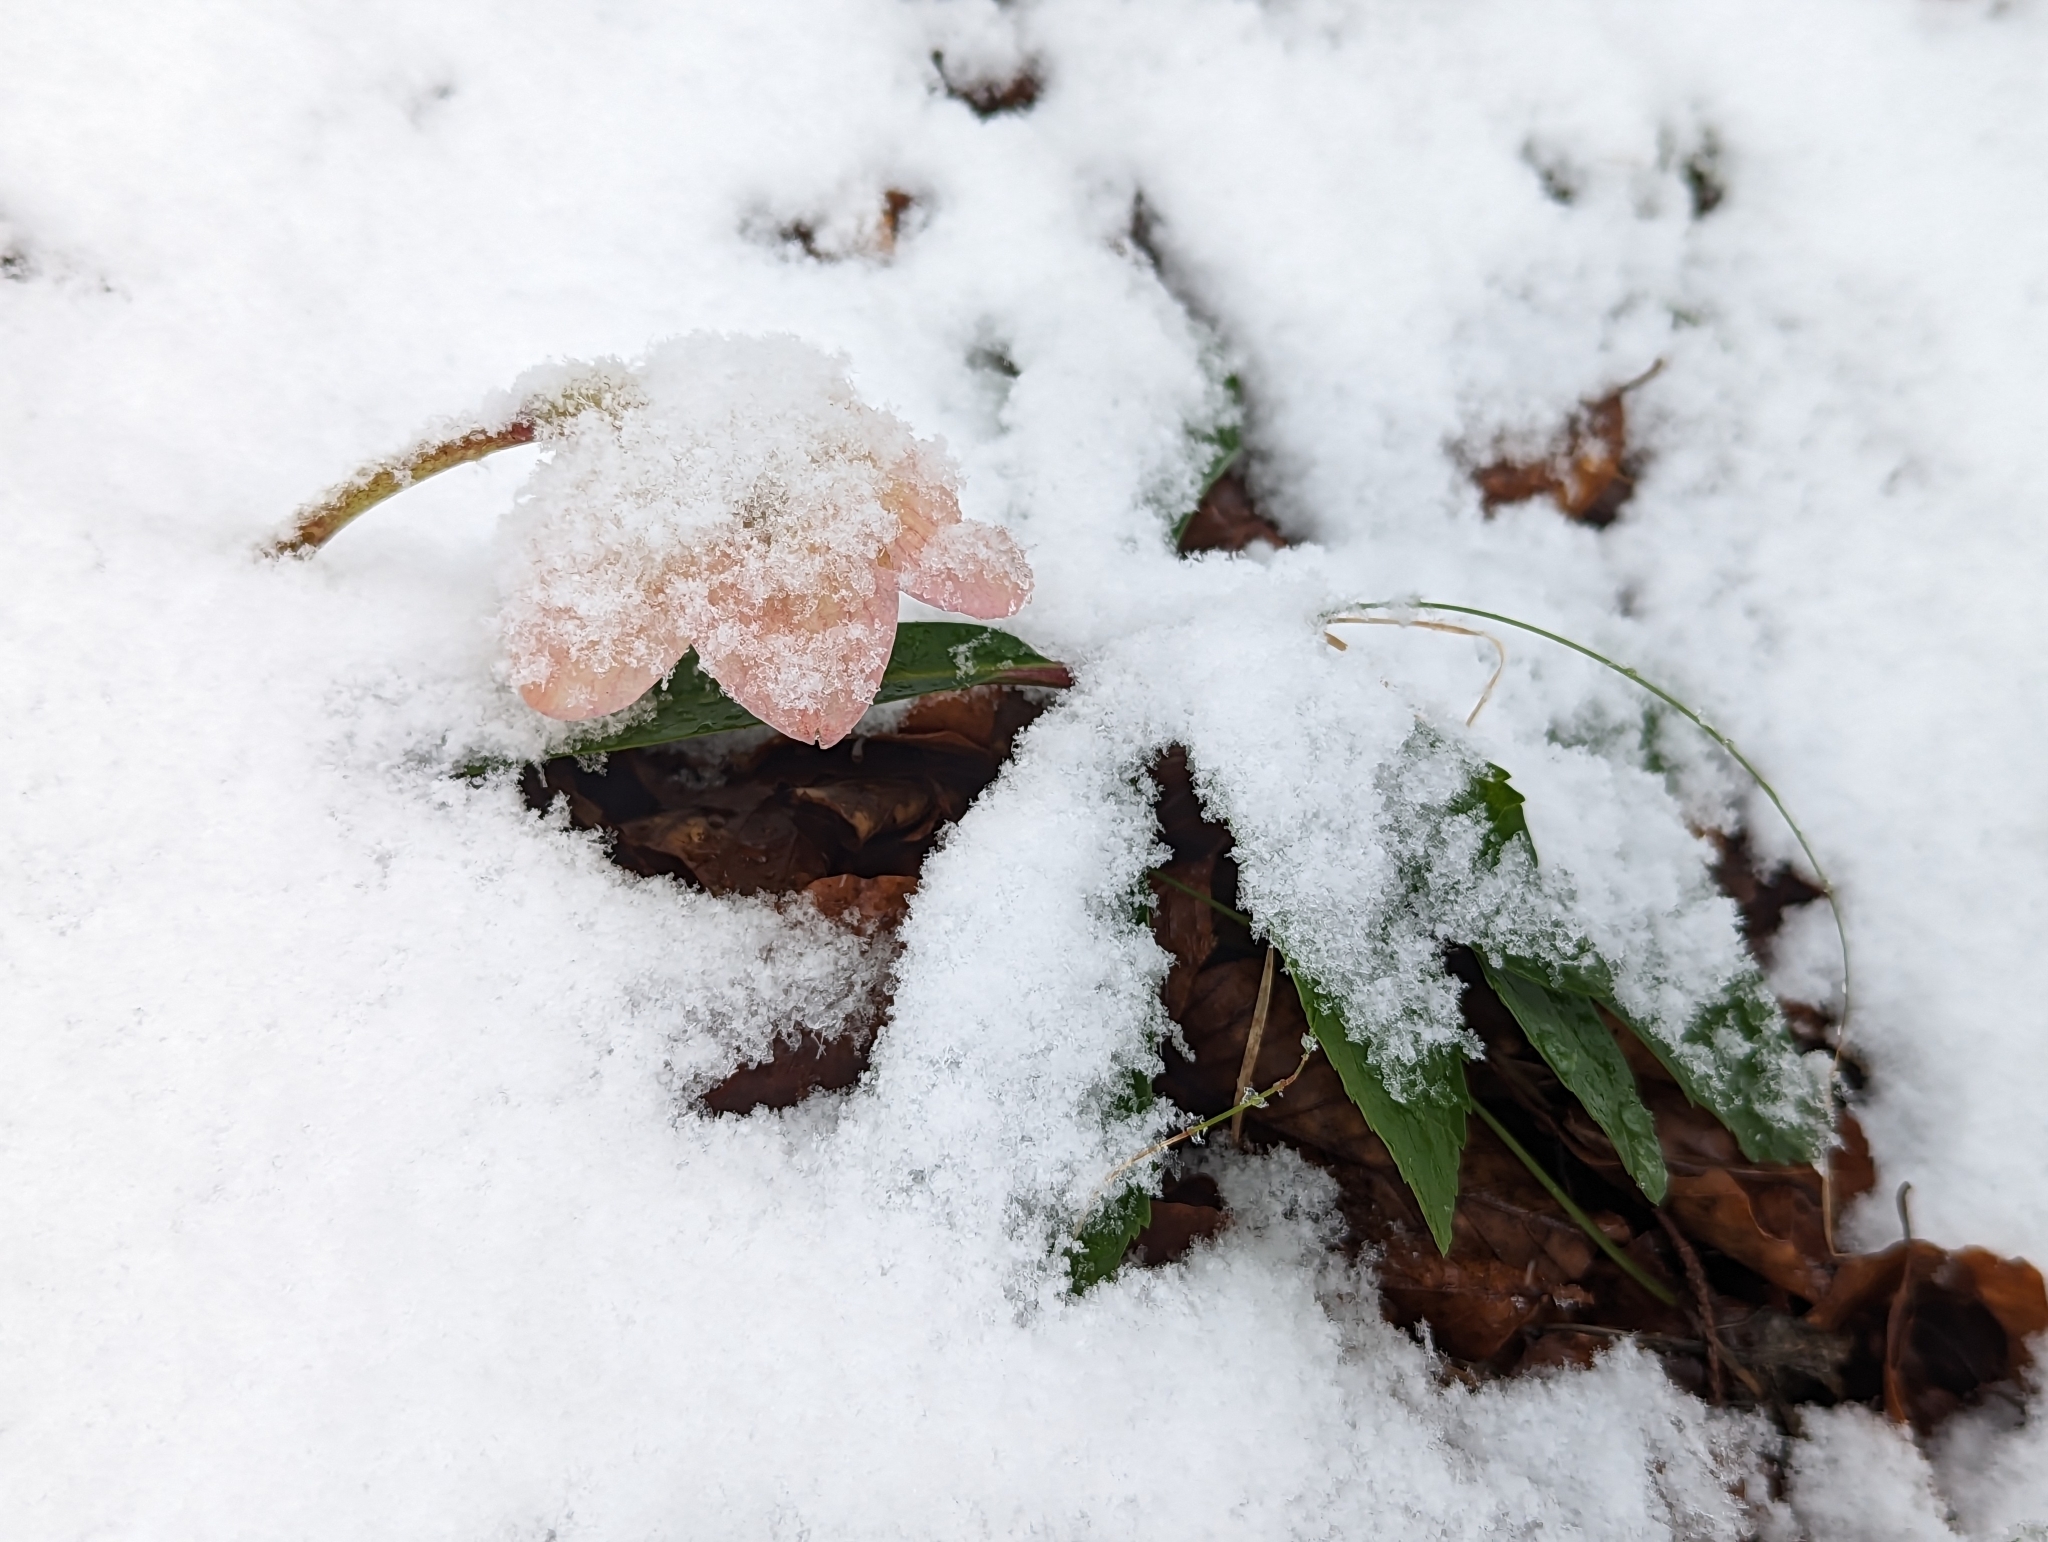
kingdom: Plantae
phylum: Tracheophyta
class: Magnoliopsida
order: Ranunculales
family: Ranunculaceae
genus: Helleborus
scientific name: Helleborus niger
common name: Black hellebore
